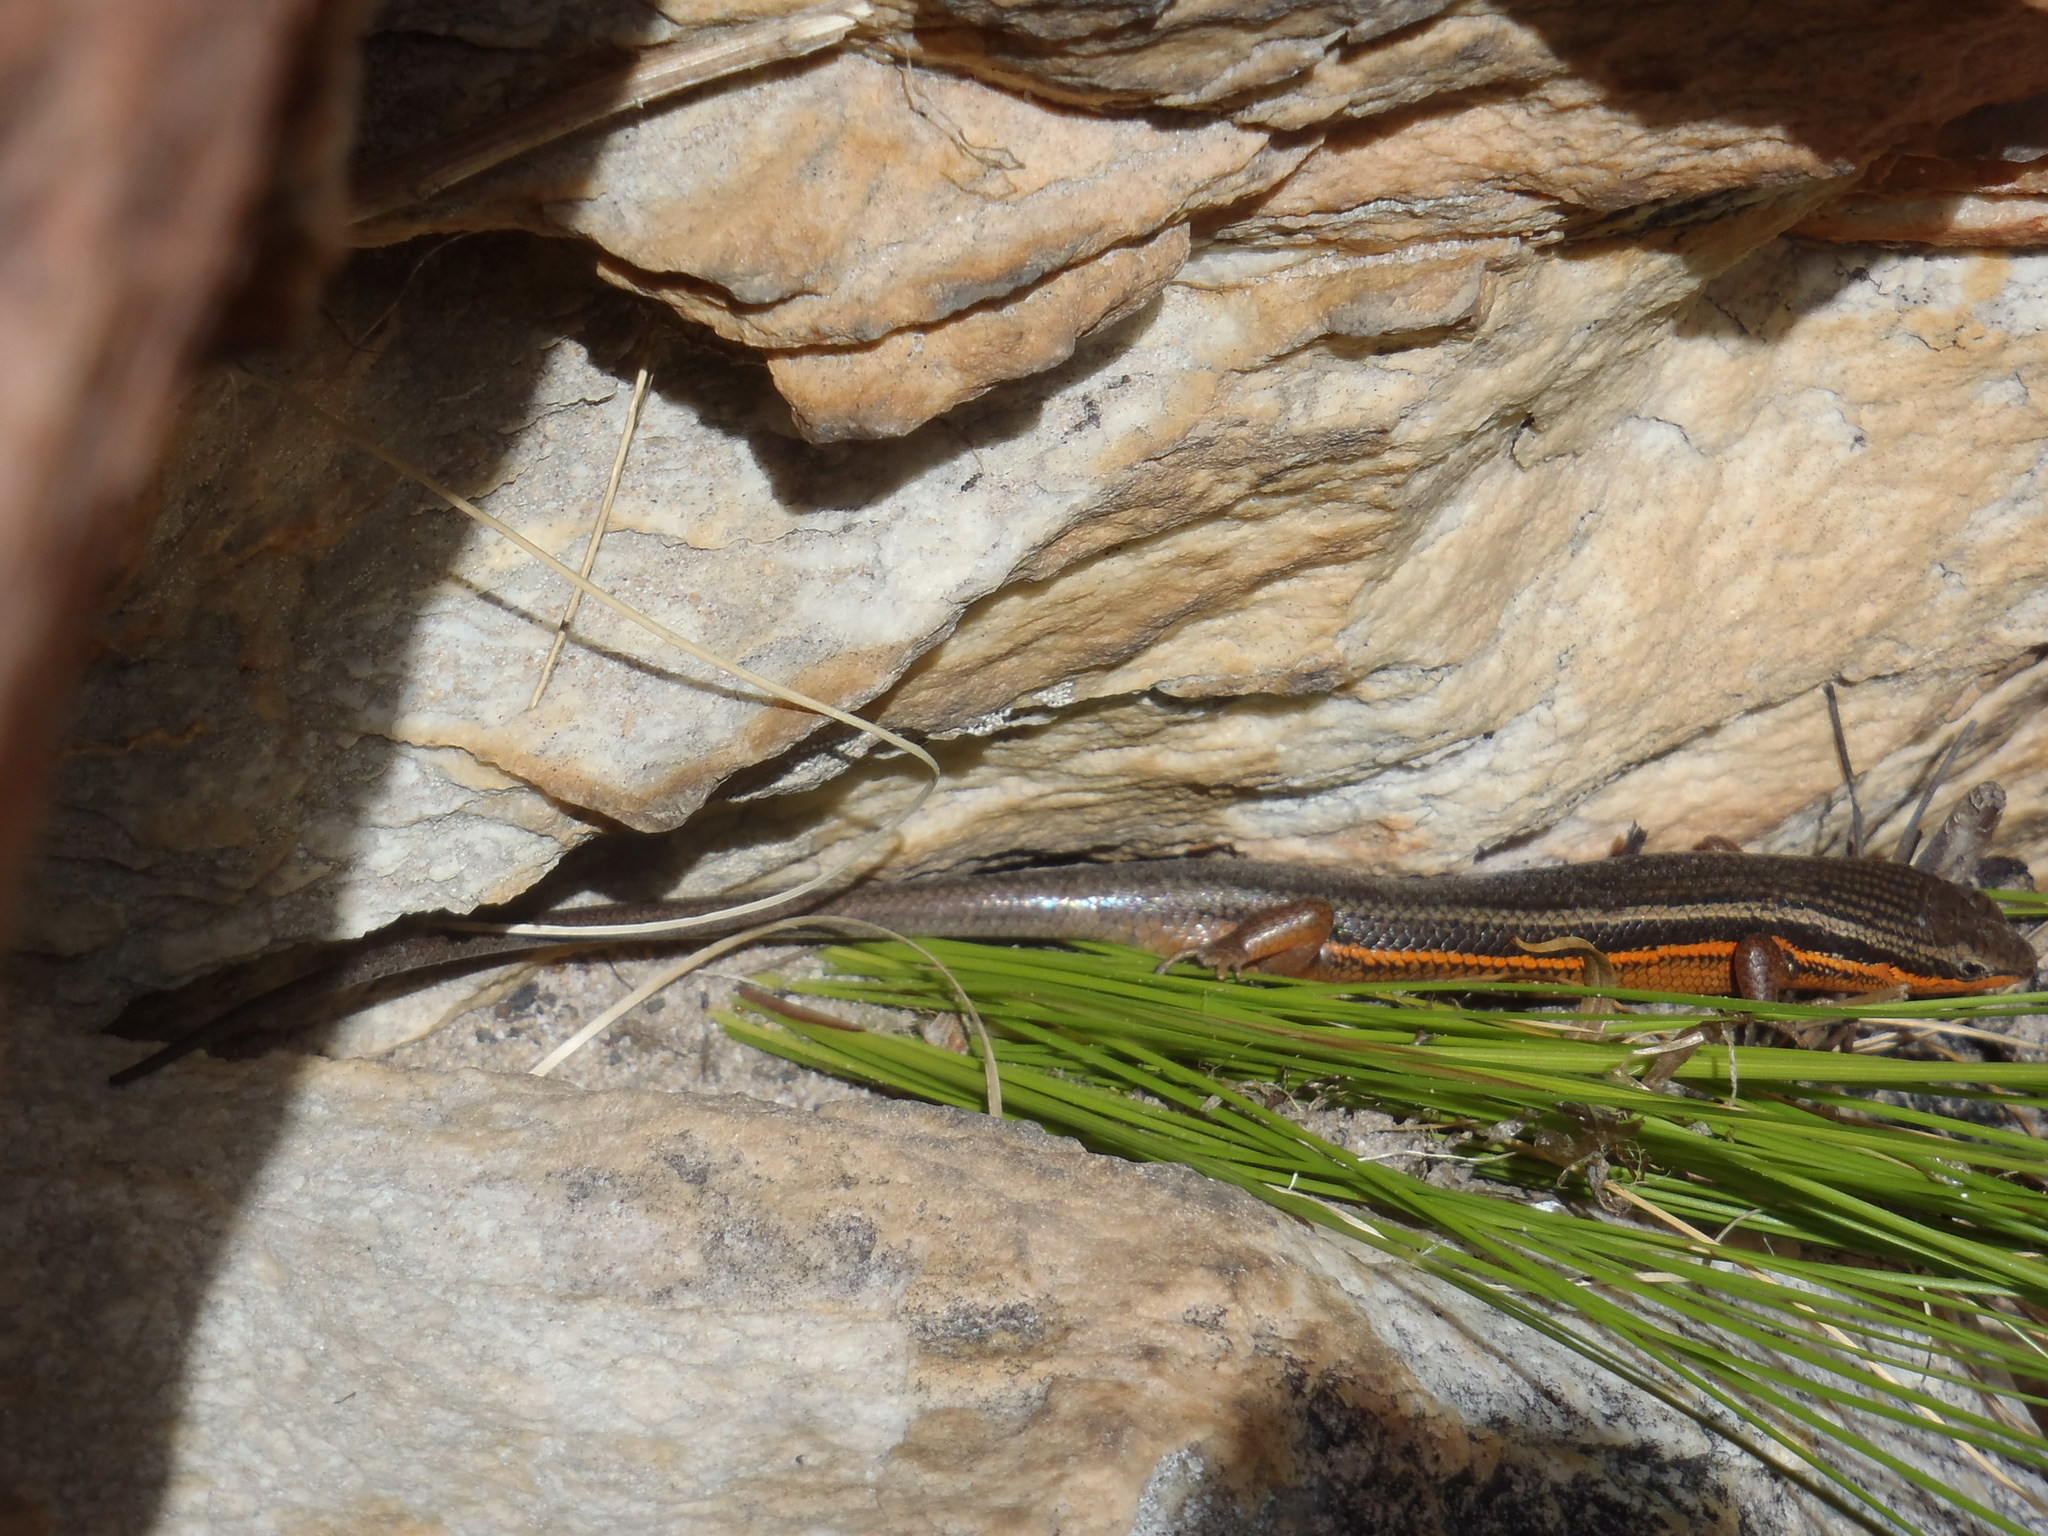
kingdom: Animalia
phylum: Chordata
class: Squamata
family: Scincidae
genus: Trachylepis
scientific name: Trachylepis homalocephala
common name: Red-sided skink
